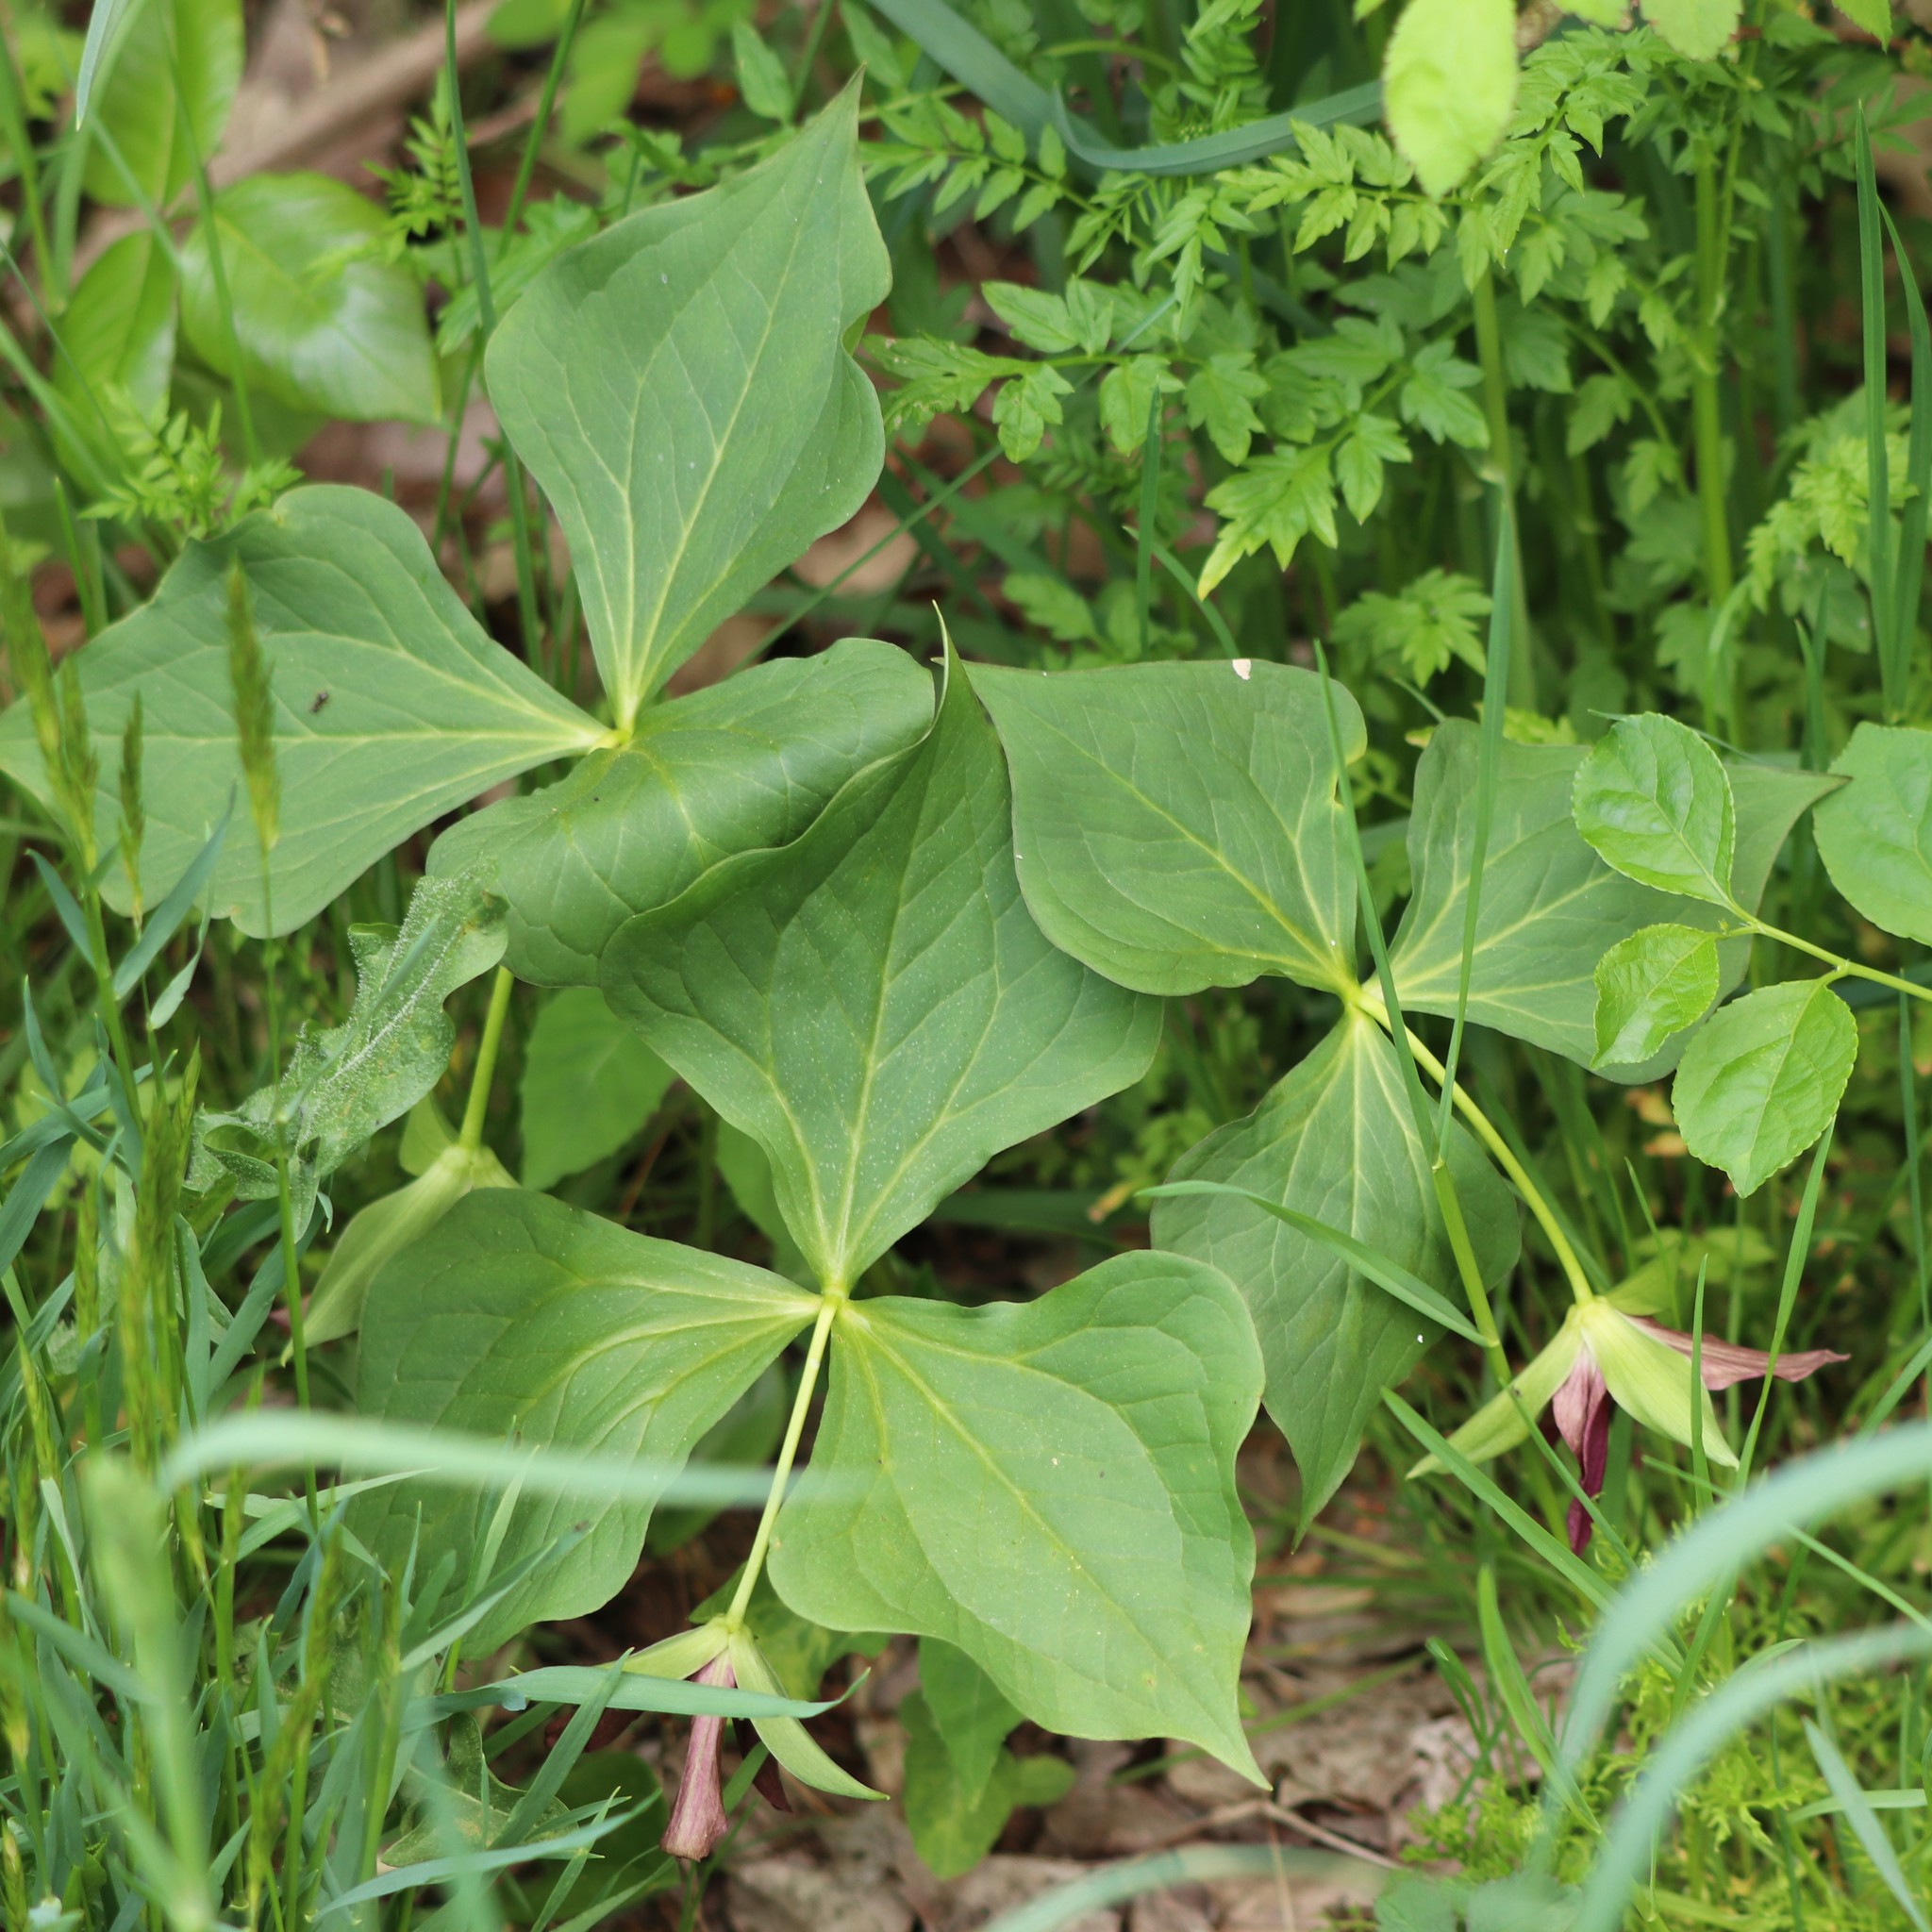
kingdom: Plantae
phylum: Tracheophyta
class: Liliopsida
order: Liliales
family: Melanthiaceae
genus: Trillium
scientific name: Trillium erectum
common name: Purple trillium
